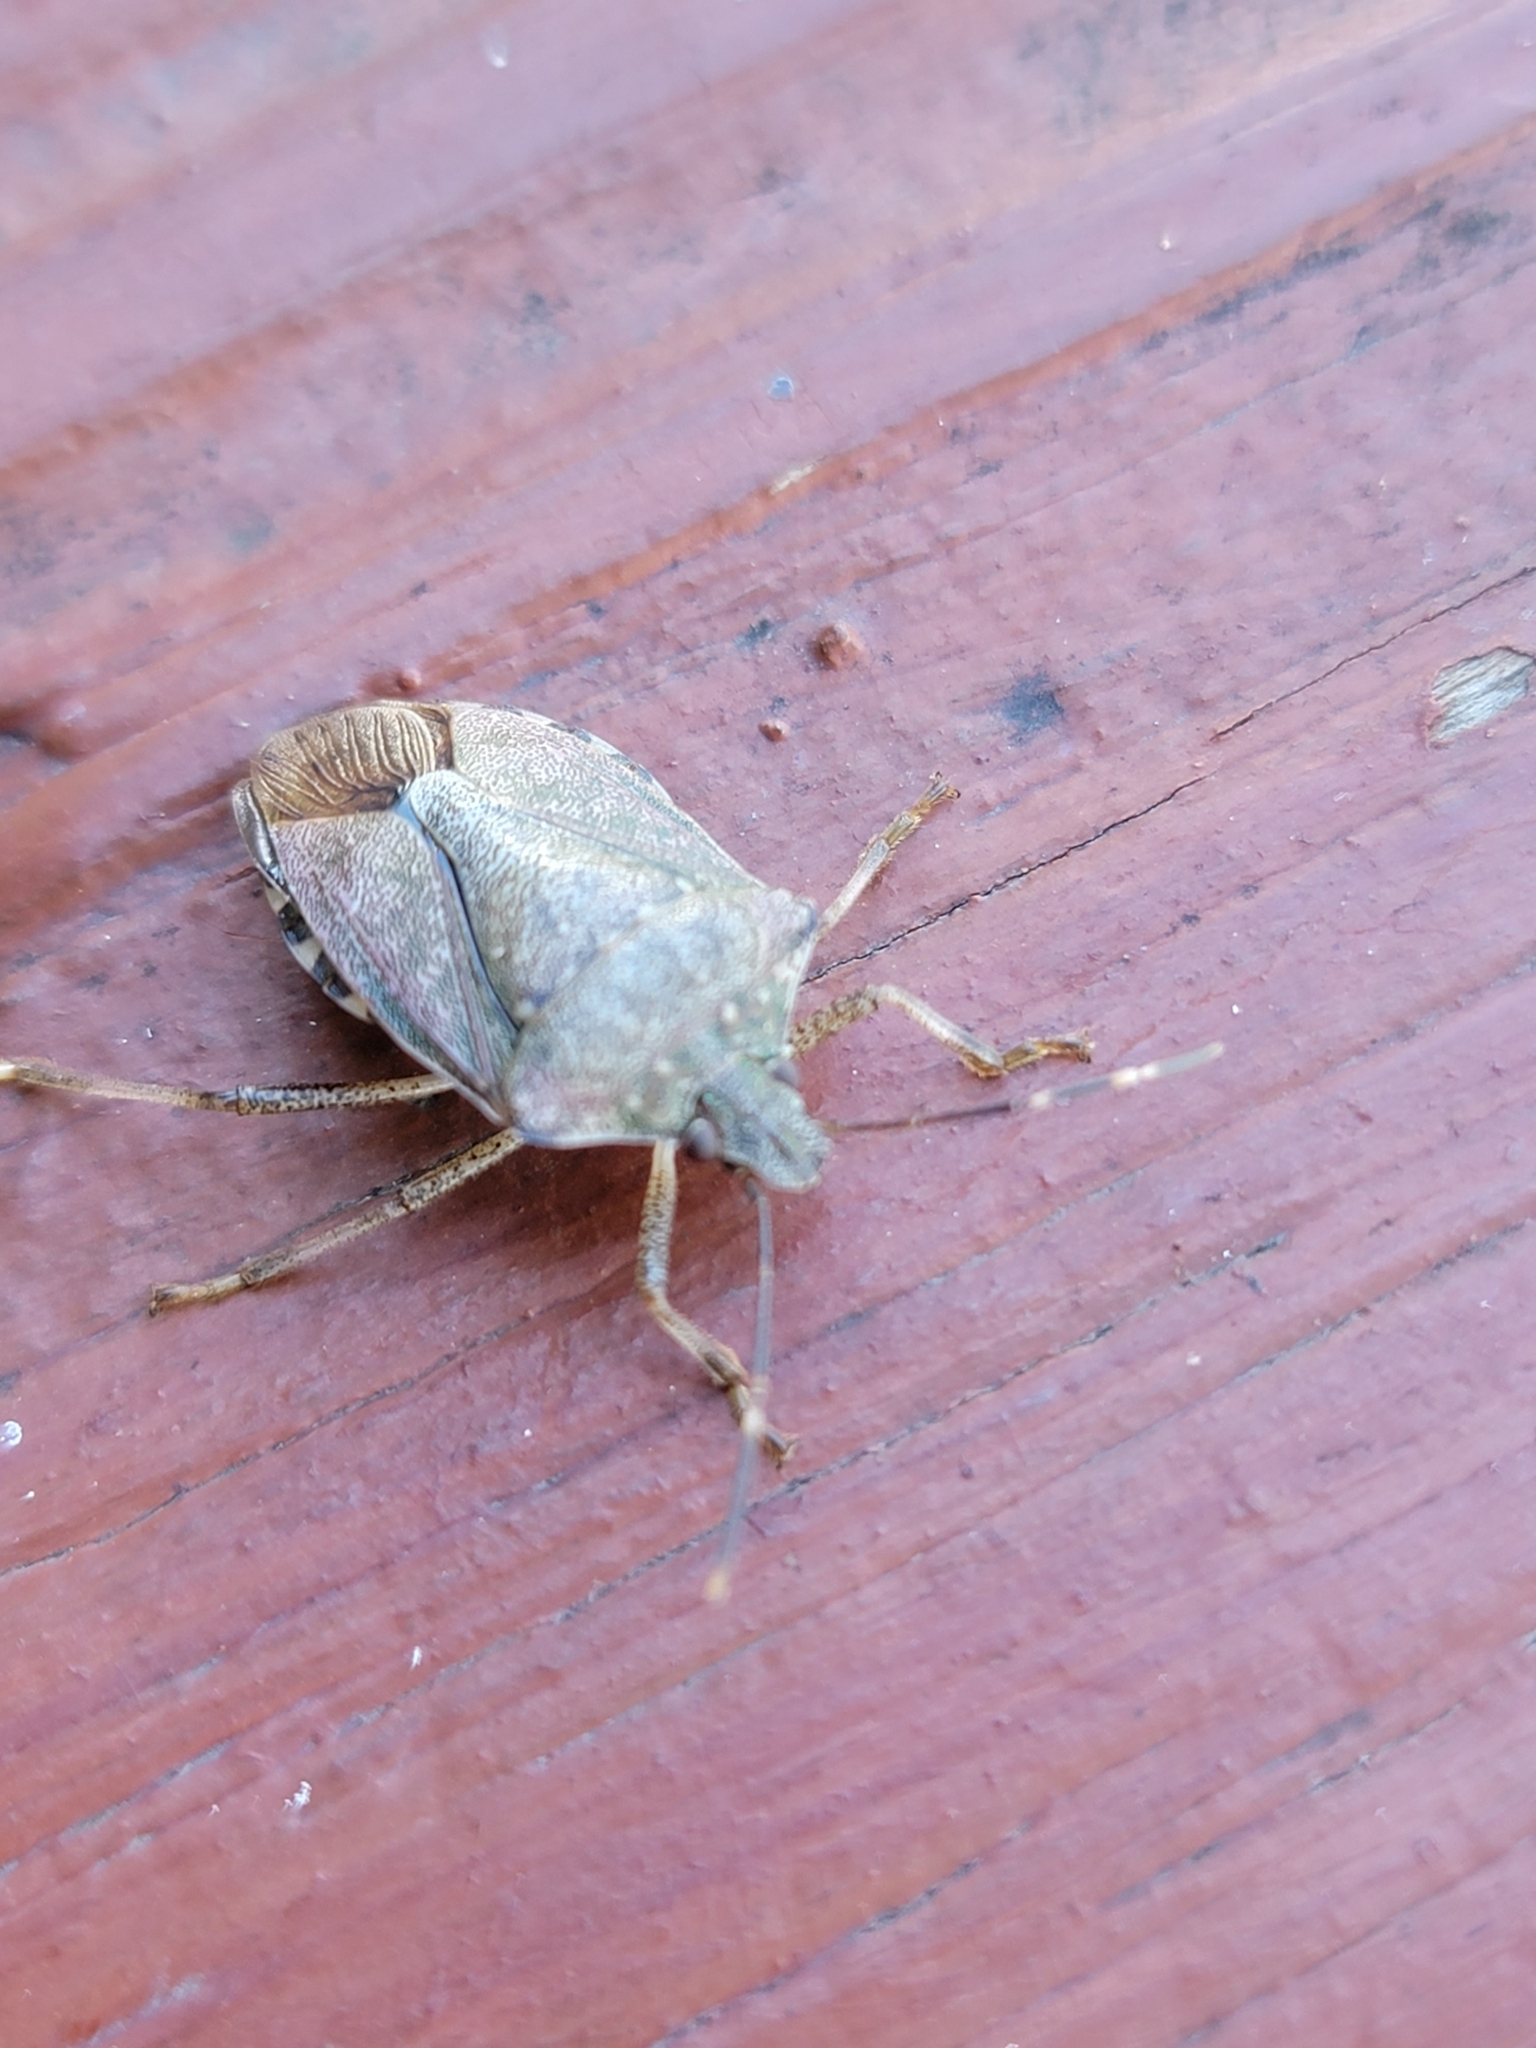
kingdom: Animalia
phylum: Arthropoda
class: Insecta
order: Hemiptera
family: Pentatomidae
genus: Halyomorpha
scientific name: Halyomorpha halys
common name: Brown marmorated stink bug
